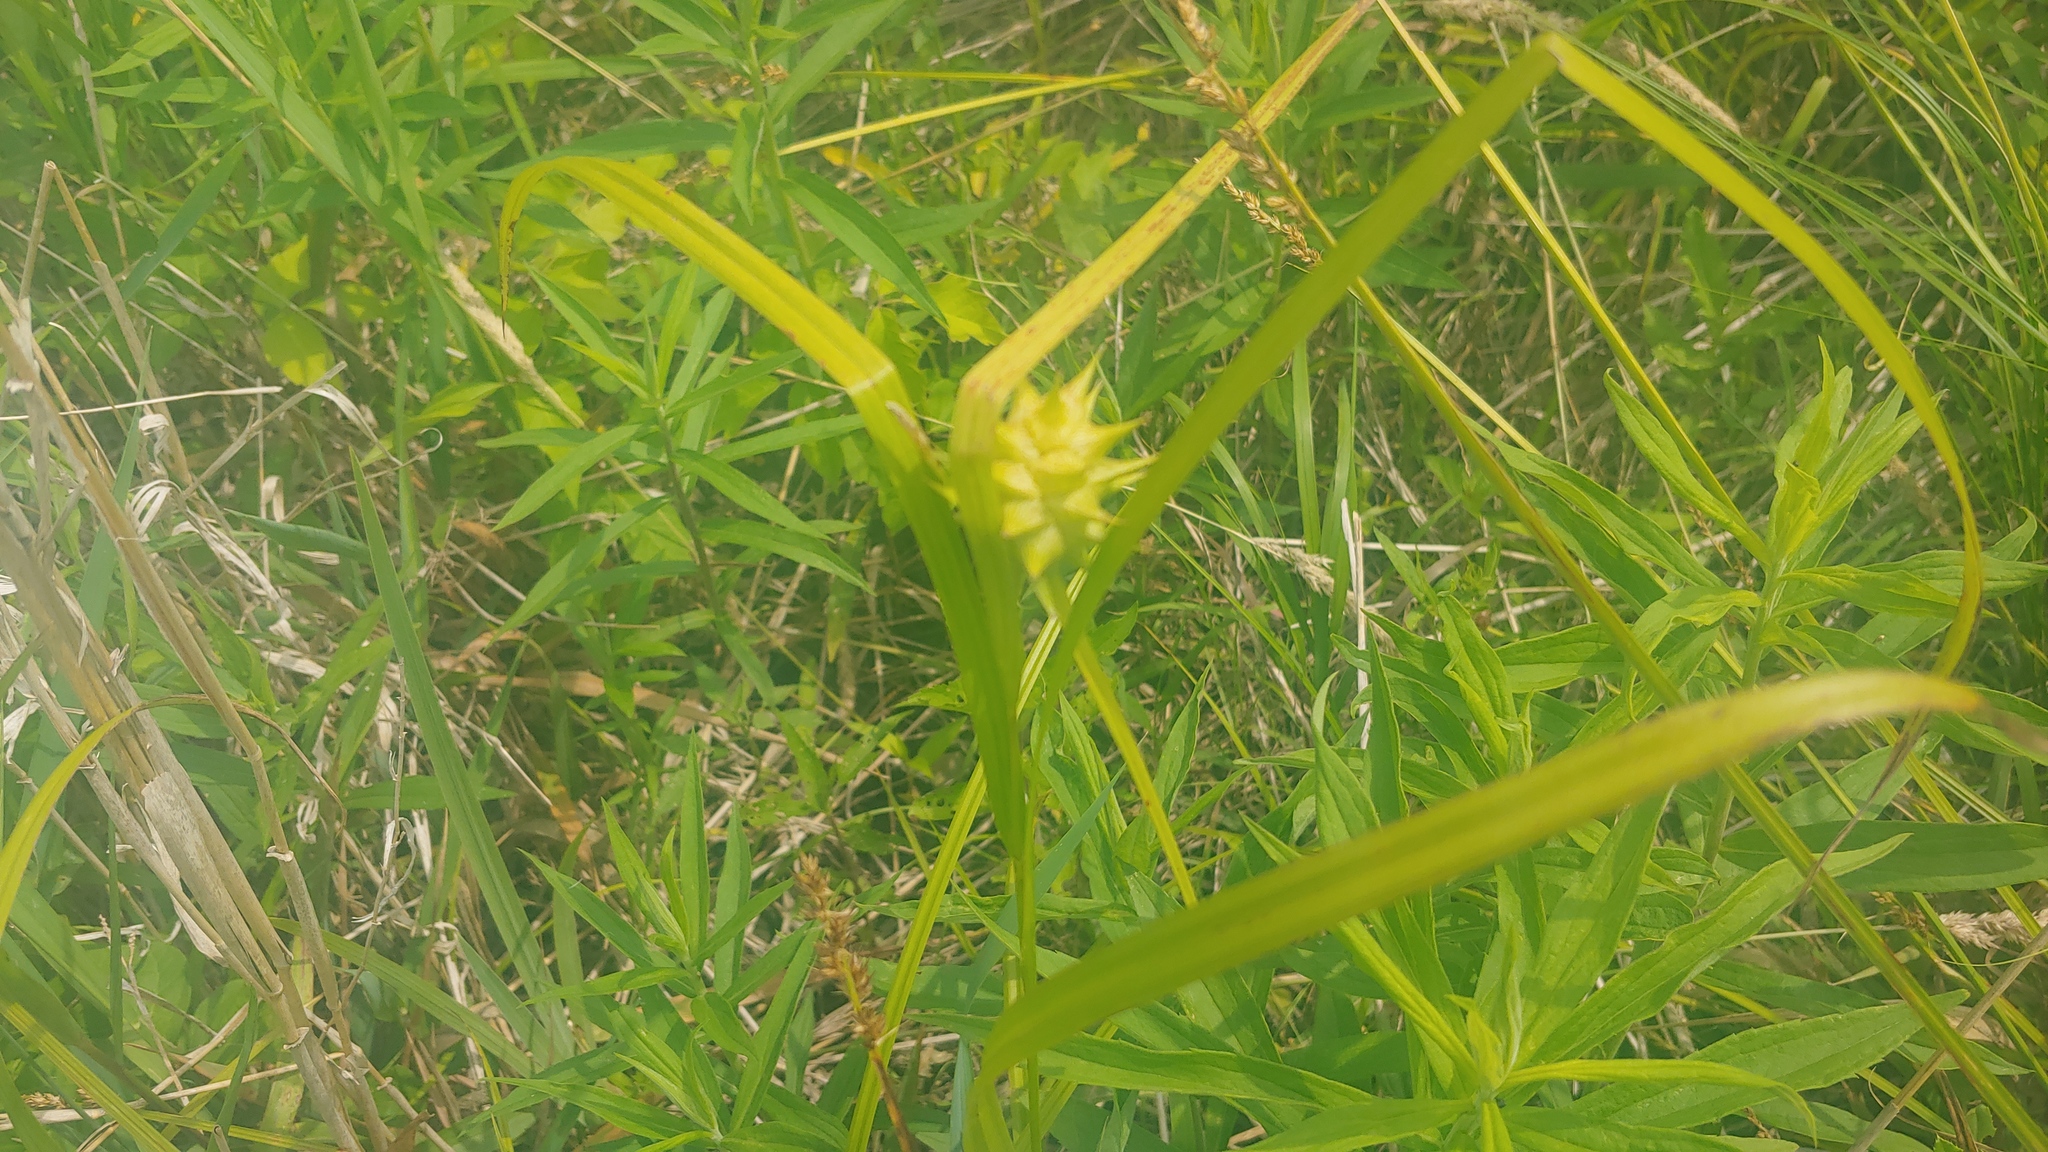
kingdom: Plantae
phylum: Tracheophyta
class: Liliopsida
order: Poales
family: Cyperaceae
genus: Carex
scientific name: Carex grayi
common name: Asa gray's sedge
